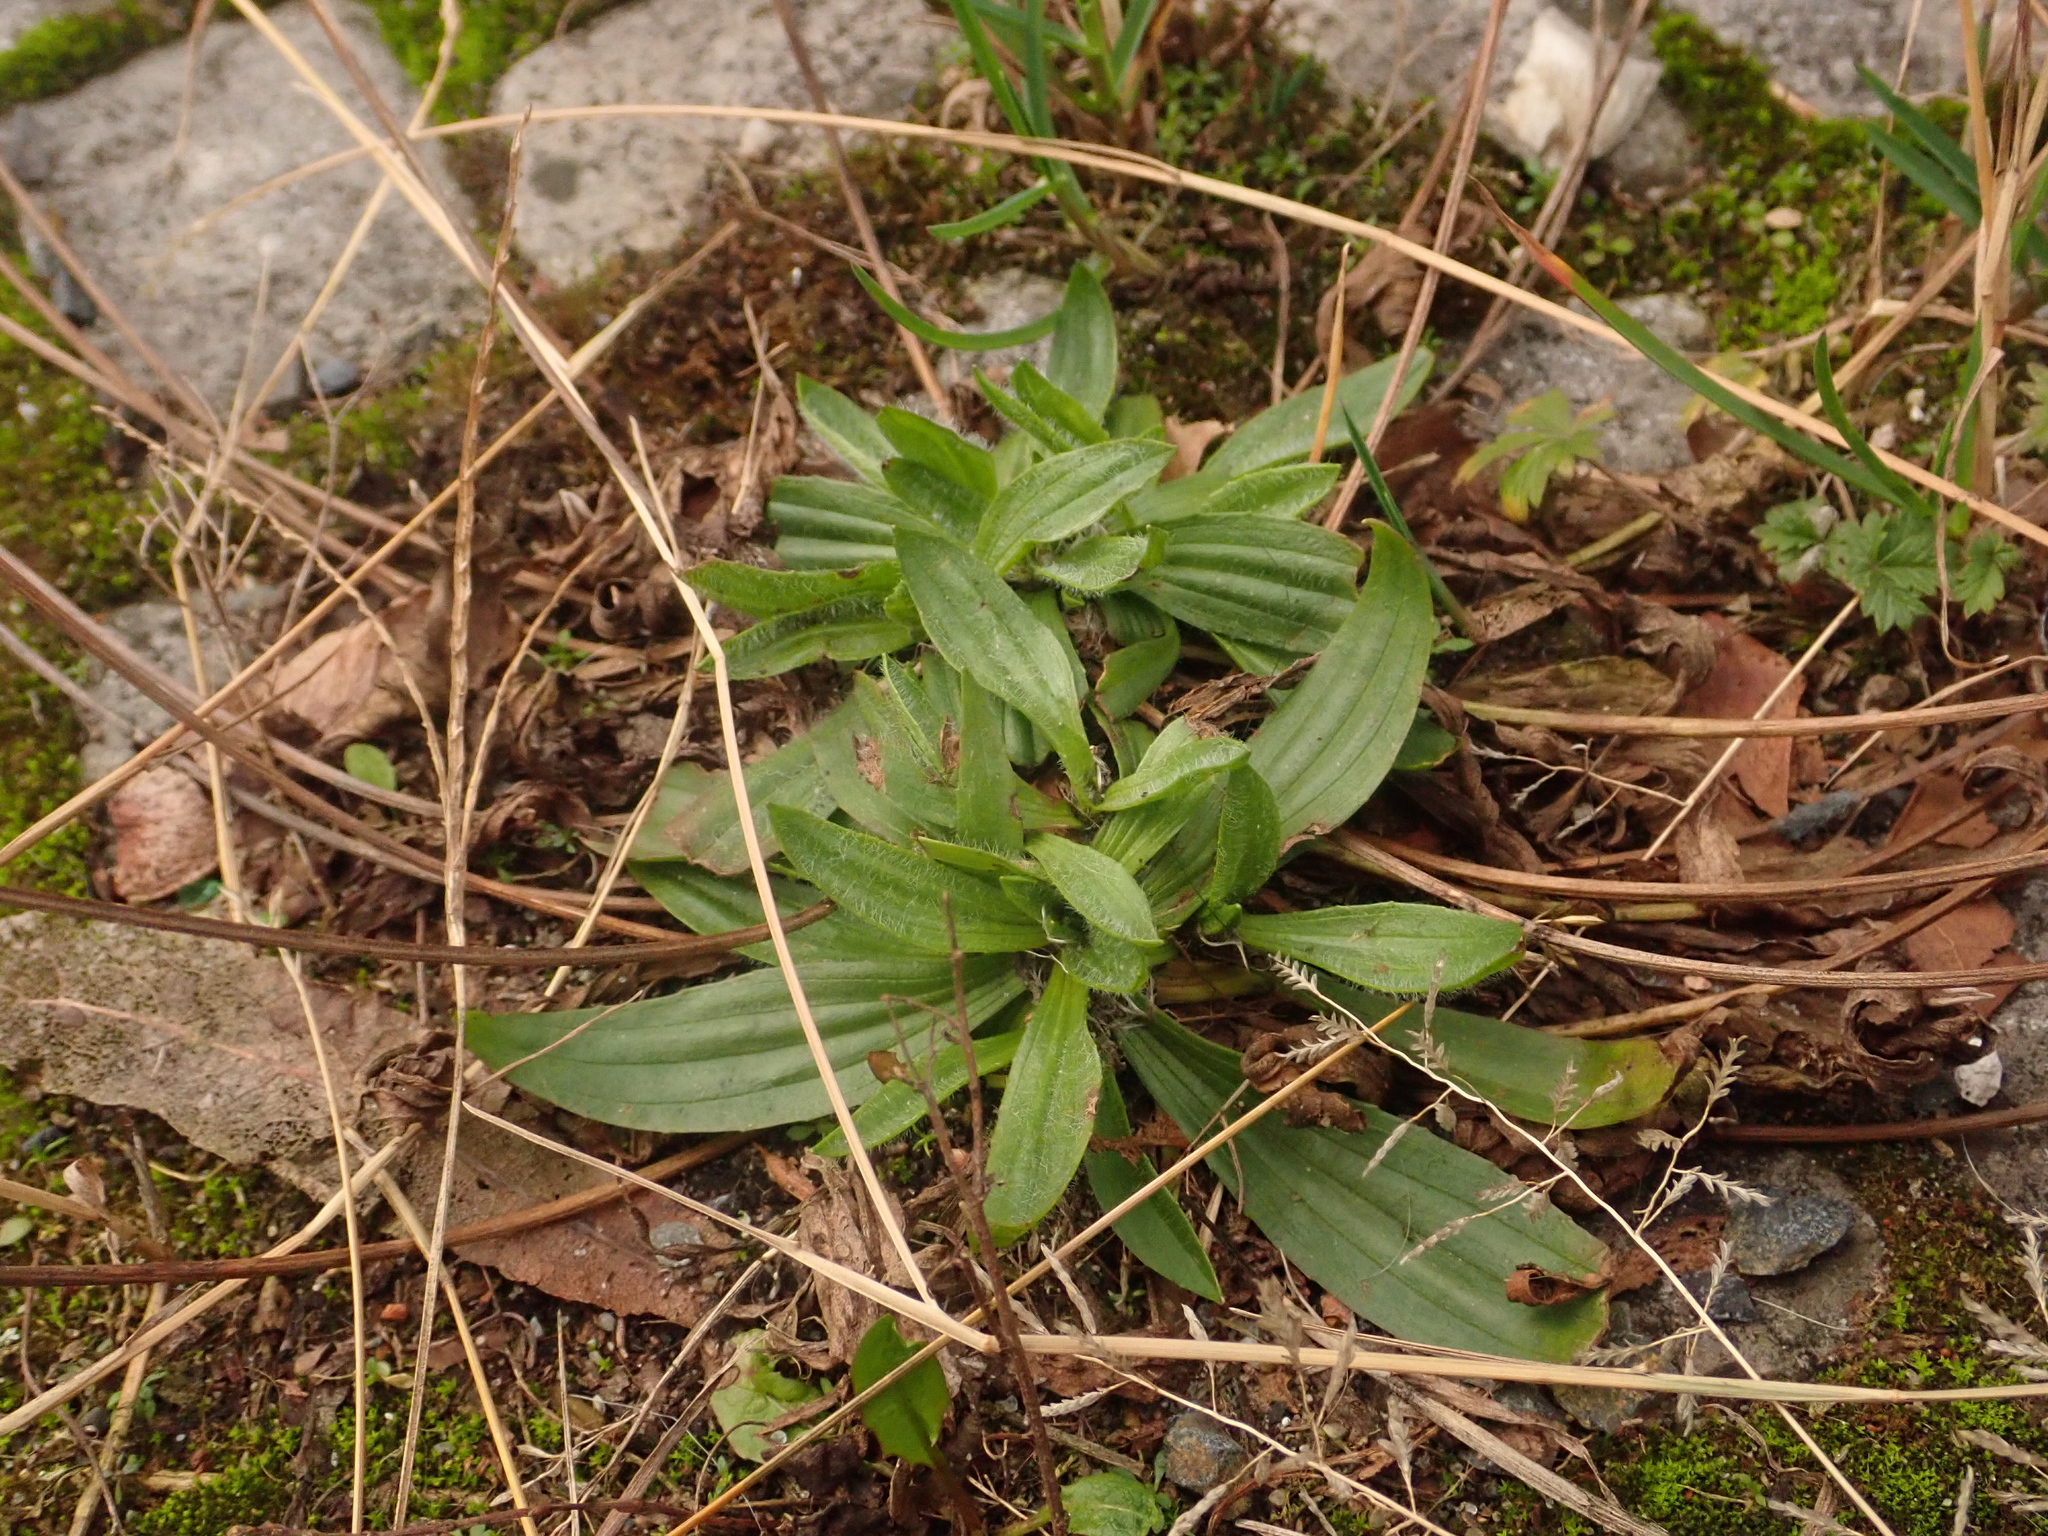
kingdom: Plantae
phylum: Tracheophyta
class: Magnoliopsida
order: Lamiales
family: Plantaginaceae
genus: Plantago
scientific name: Plantago lanceolata
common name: Ribwort plantain
